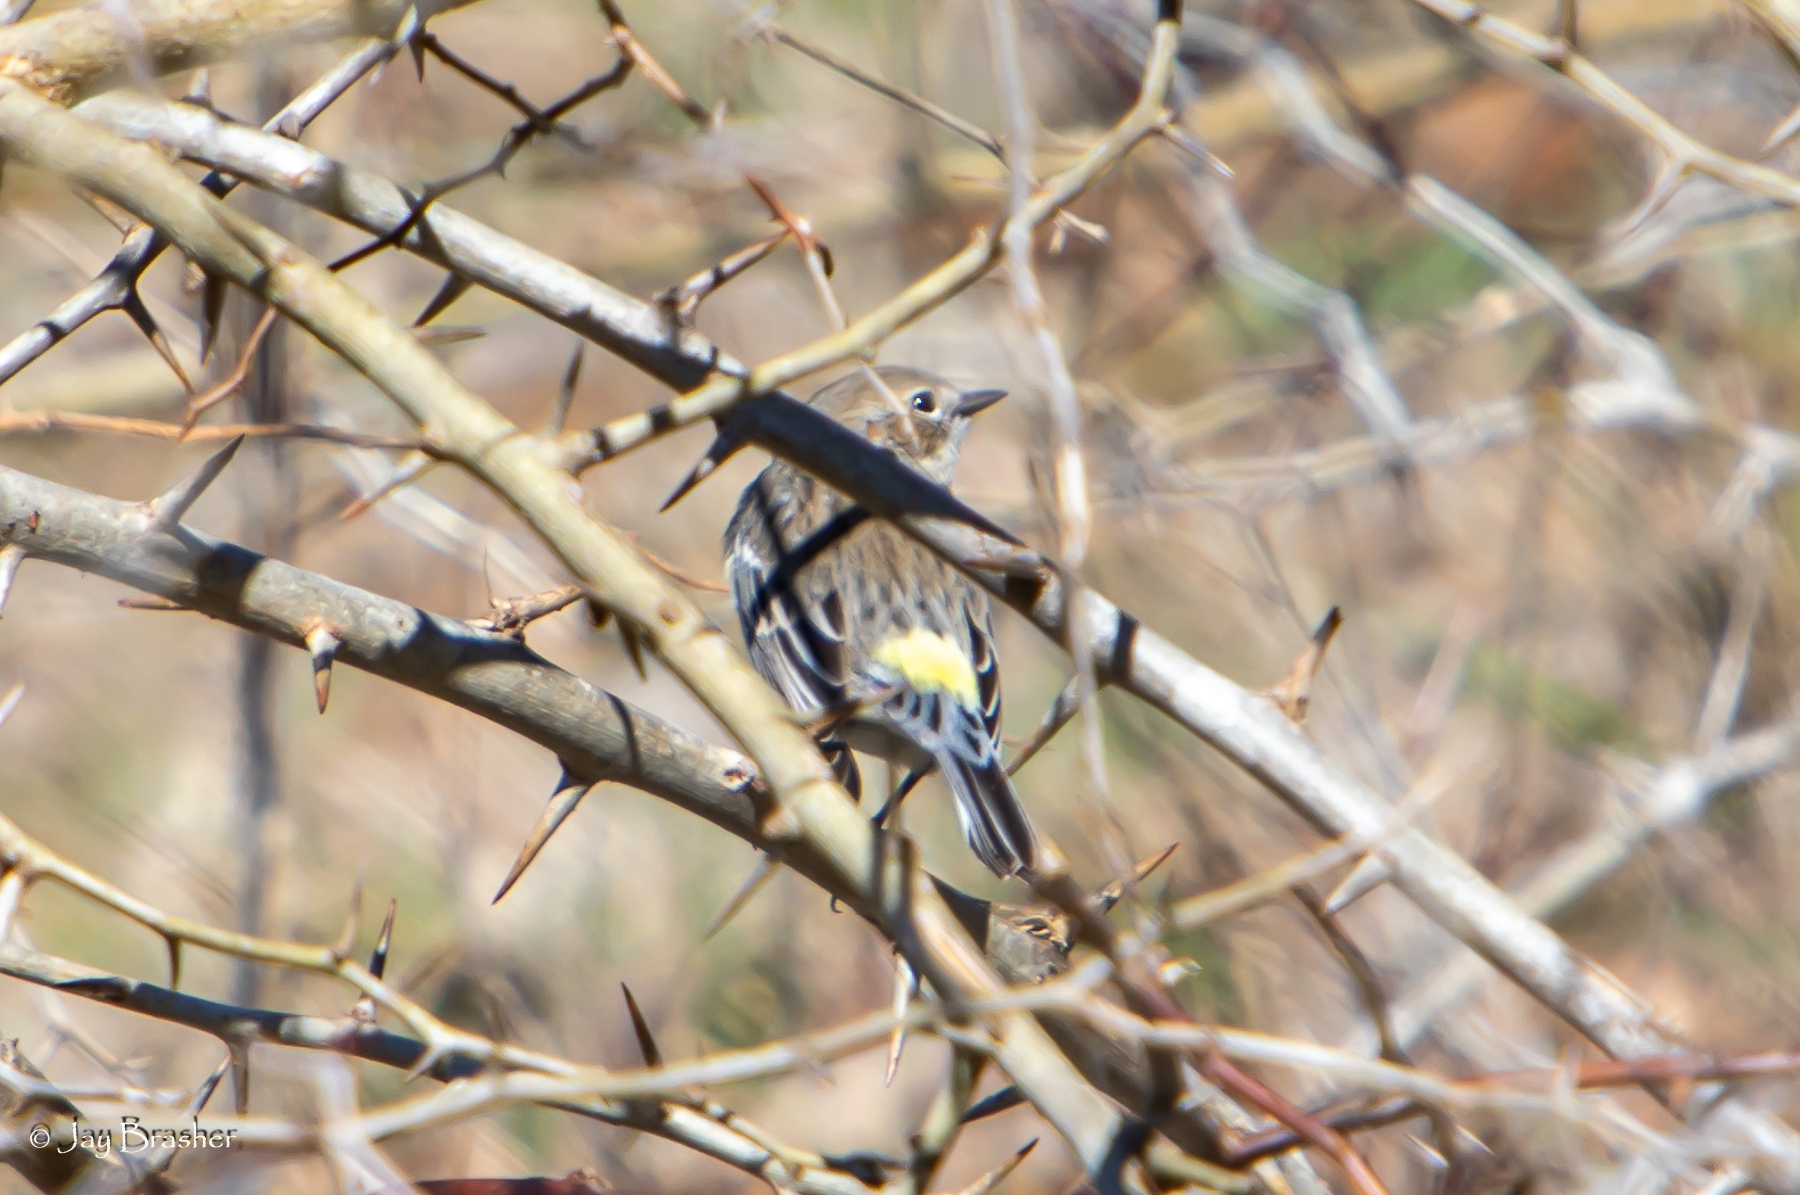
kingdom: Animalia
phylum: Chordata
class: Aves
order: Passeriformes
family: Parulidae
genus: Setophaga
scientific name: Setophaga coronata
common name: Myrtle warbler
